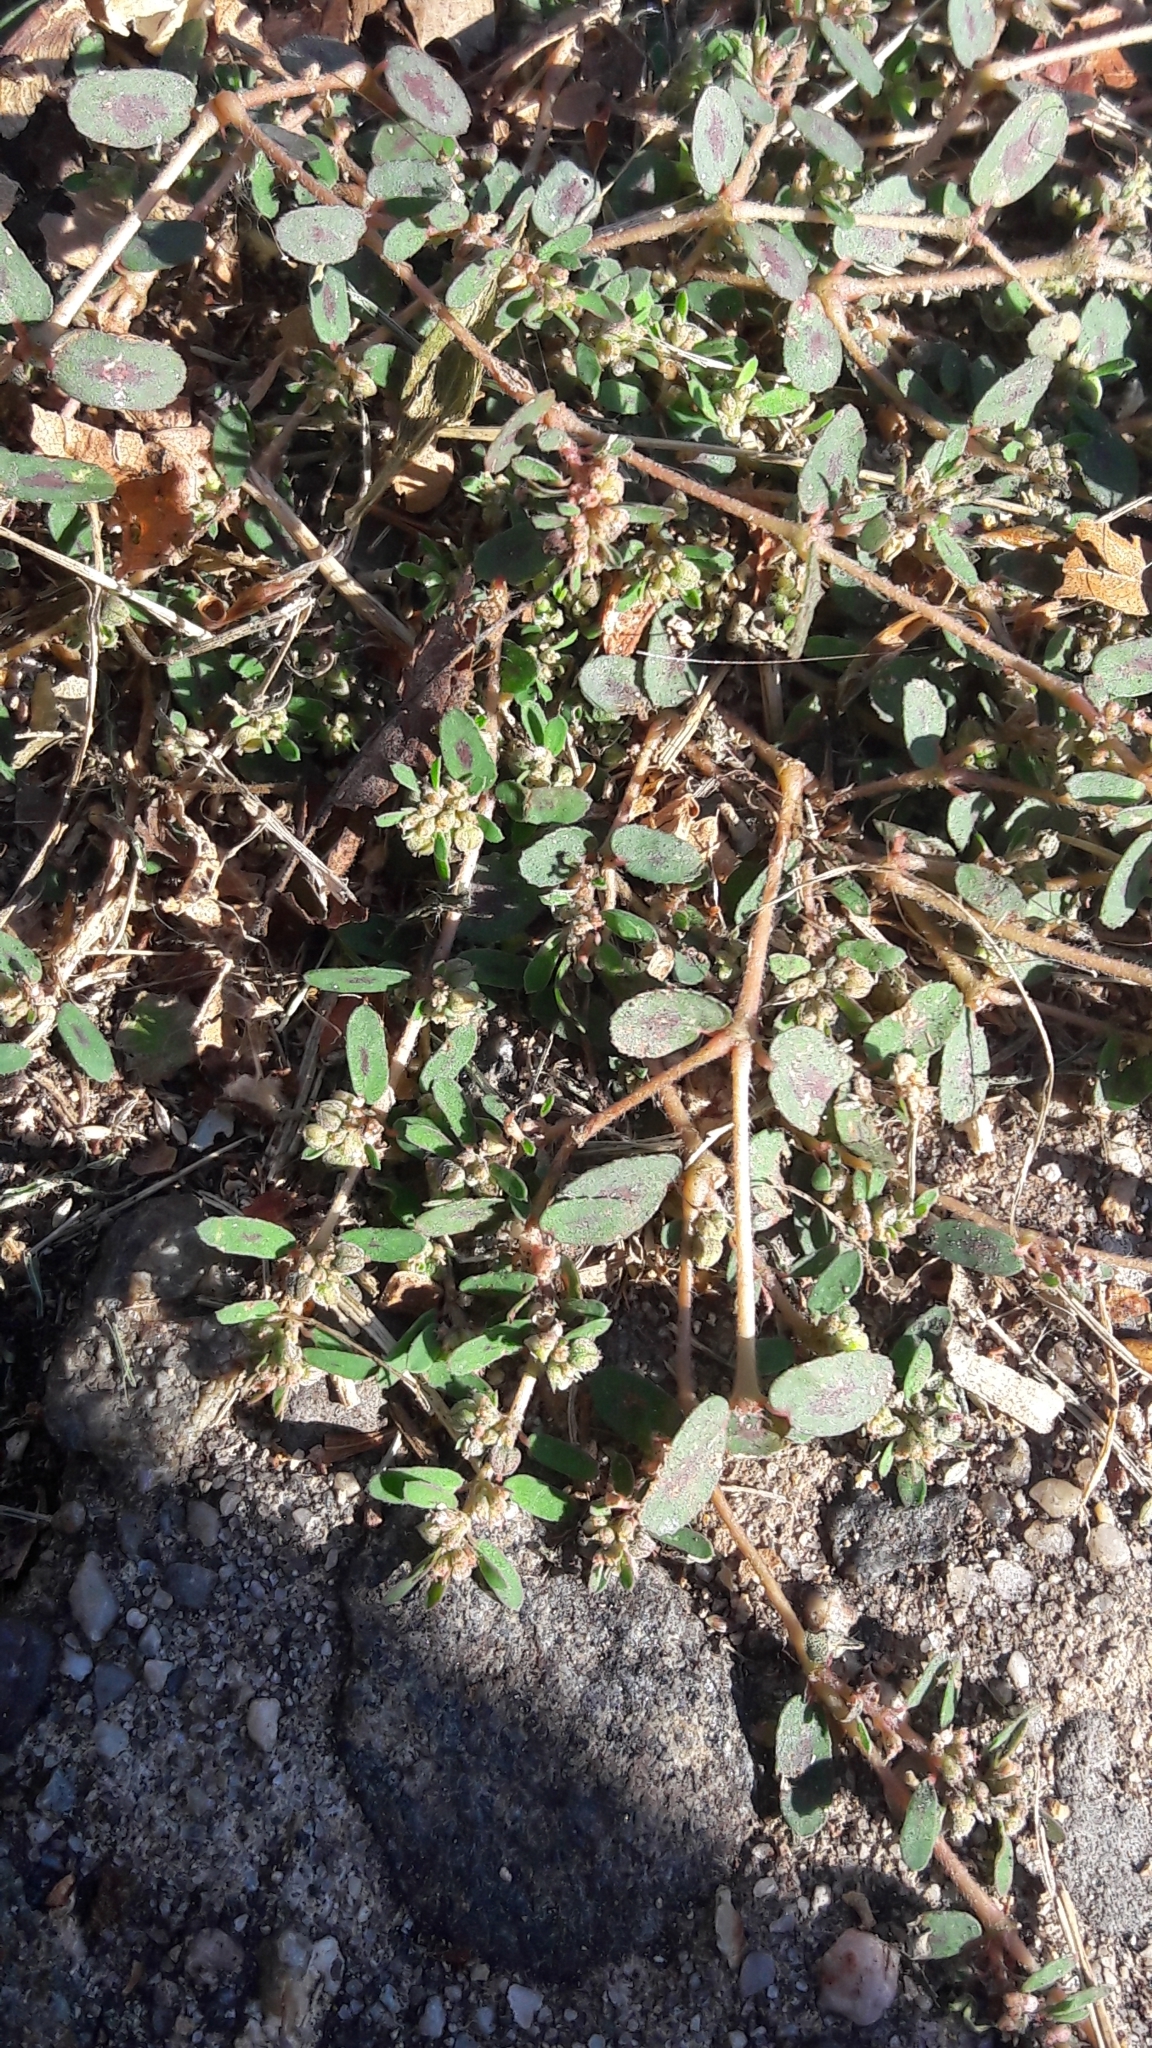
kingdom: Plantae
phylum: Tracheophyta
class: Magnoliopsida
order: Malpighiales
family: Euphorbiaceae
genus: Euphorbia
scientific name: Euphorbia maculata
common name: Spotted spurge
